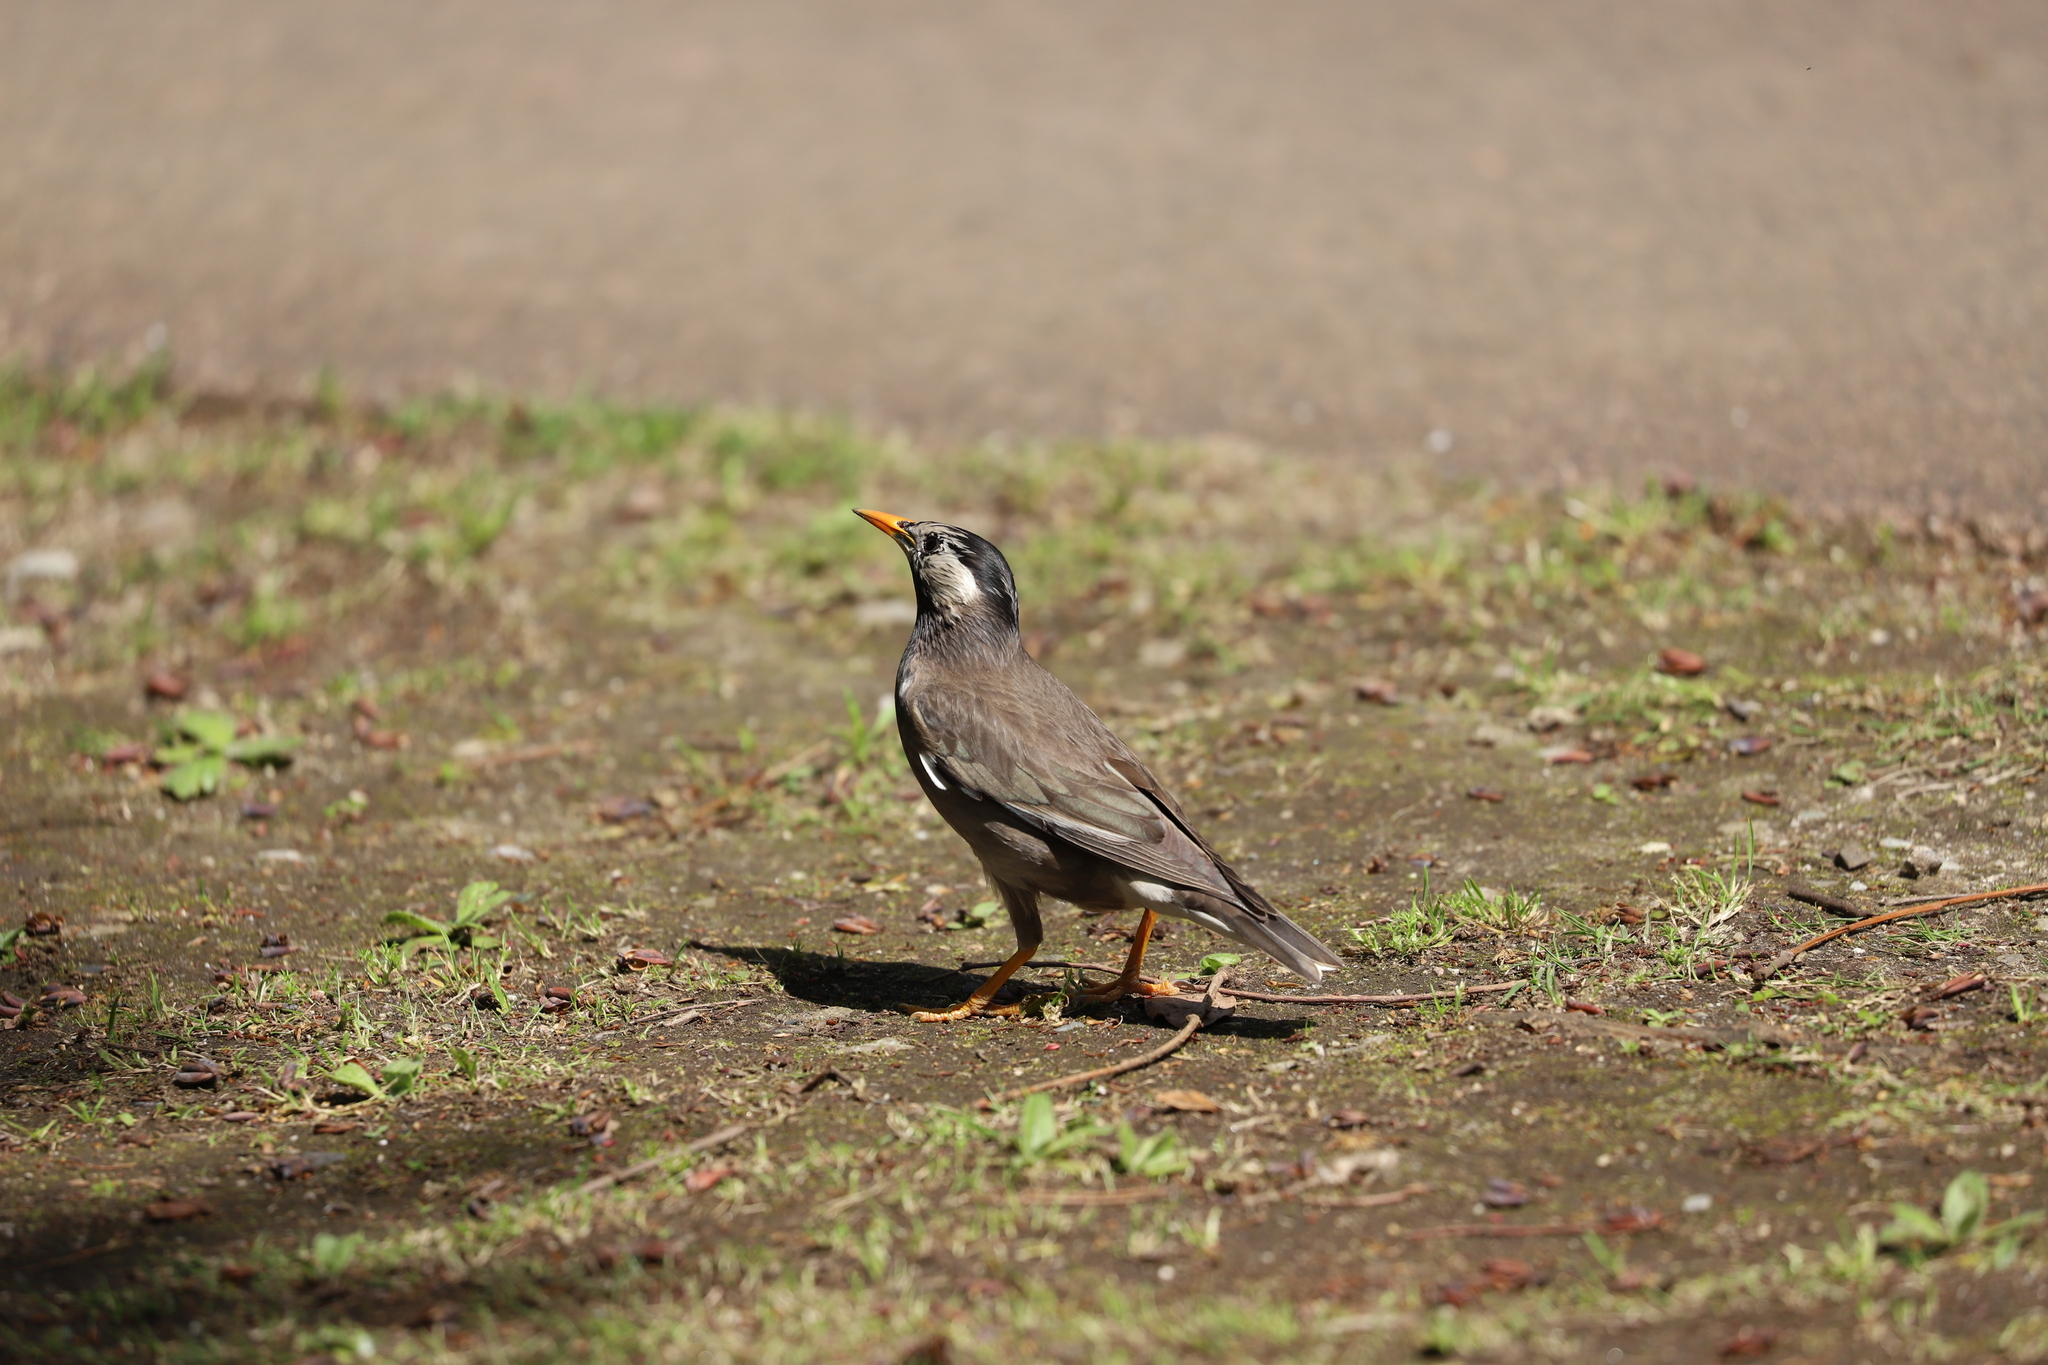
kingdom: Animalia
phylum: Chordata
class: Aves
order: Passeriformes
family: Sturnidae
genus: Spodiopsar
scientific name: Spodiopsar cineraceus
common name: White-cheeked starling
